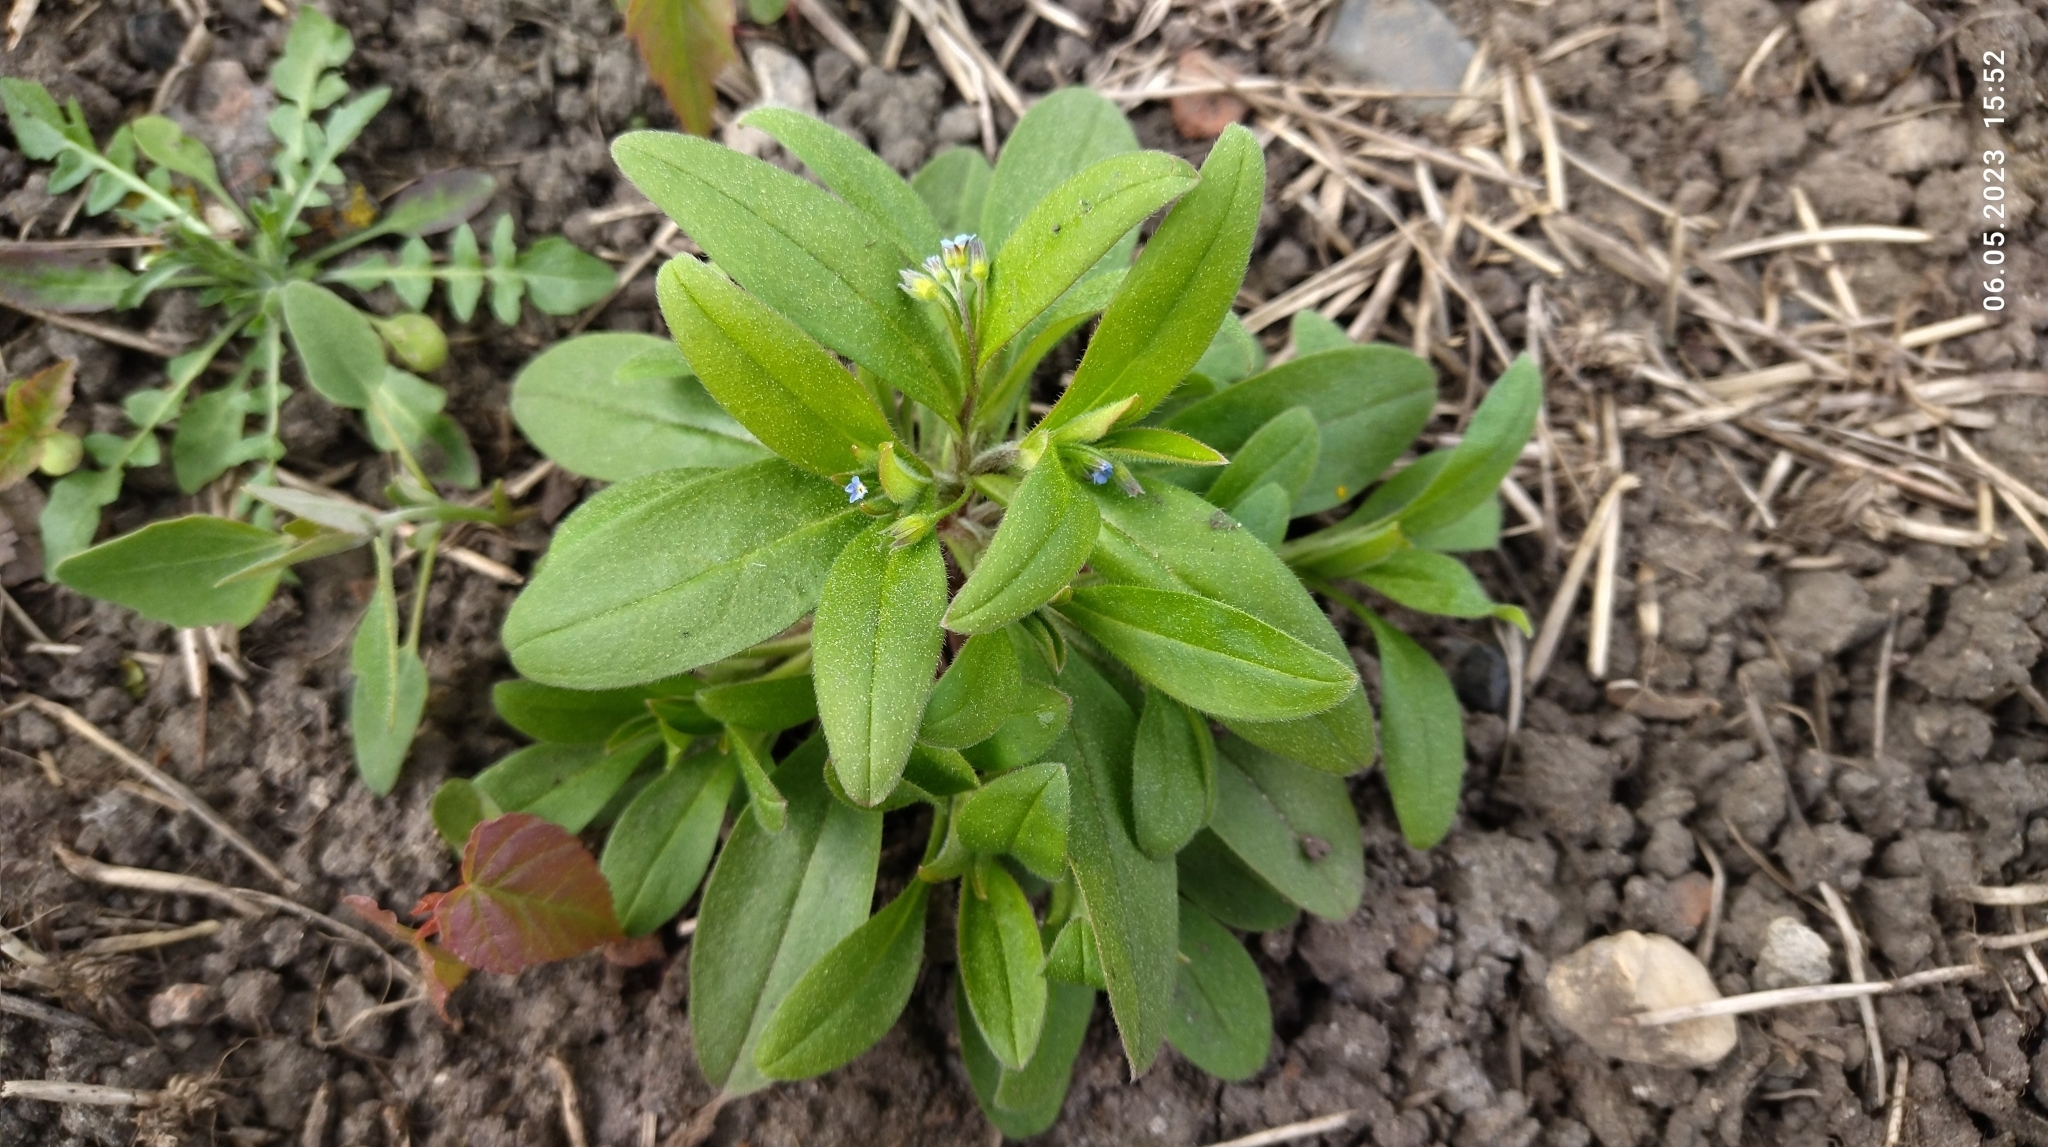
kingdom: Plantae
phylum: Tracheophyta
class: Magnoliopsida
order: Boraginales
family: Boraginaceae
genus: Myosotis
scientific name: Myosotis sparsiflora
